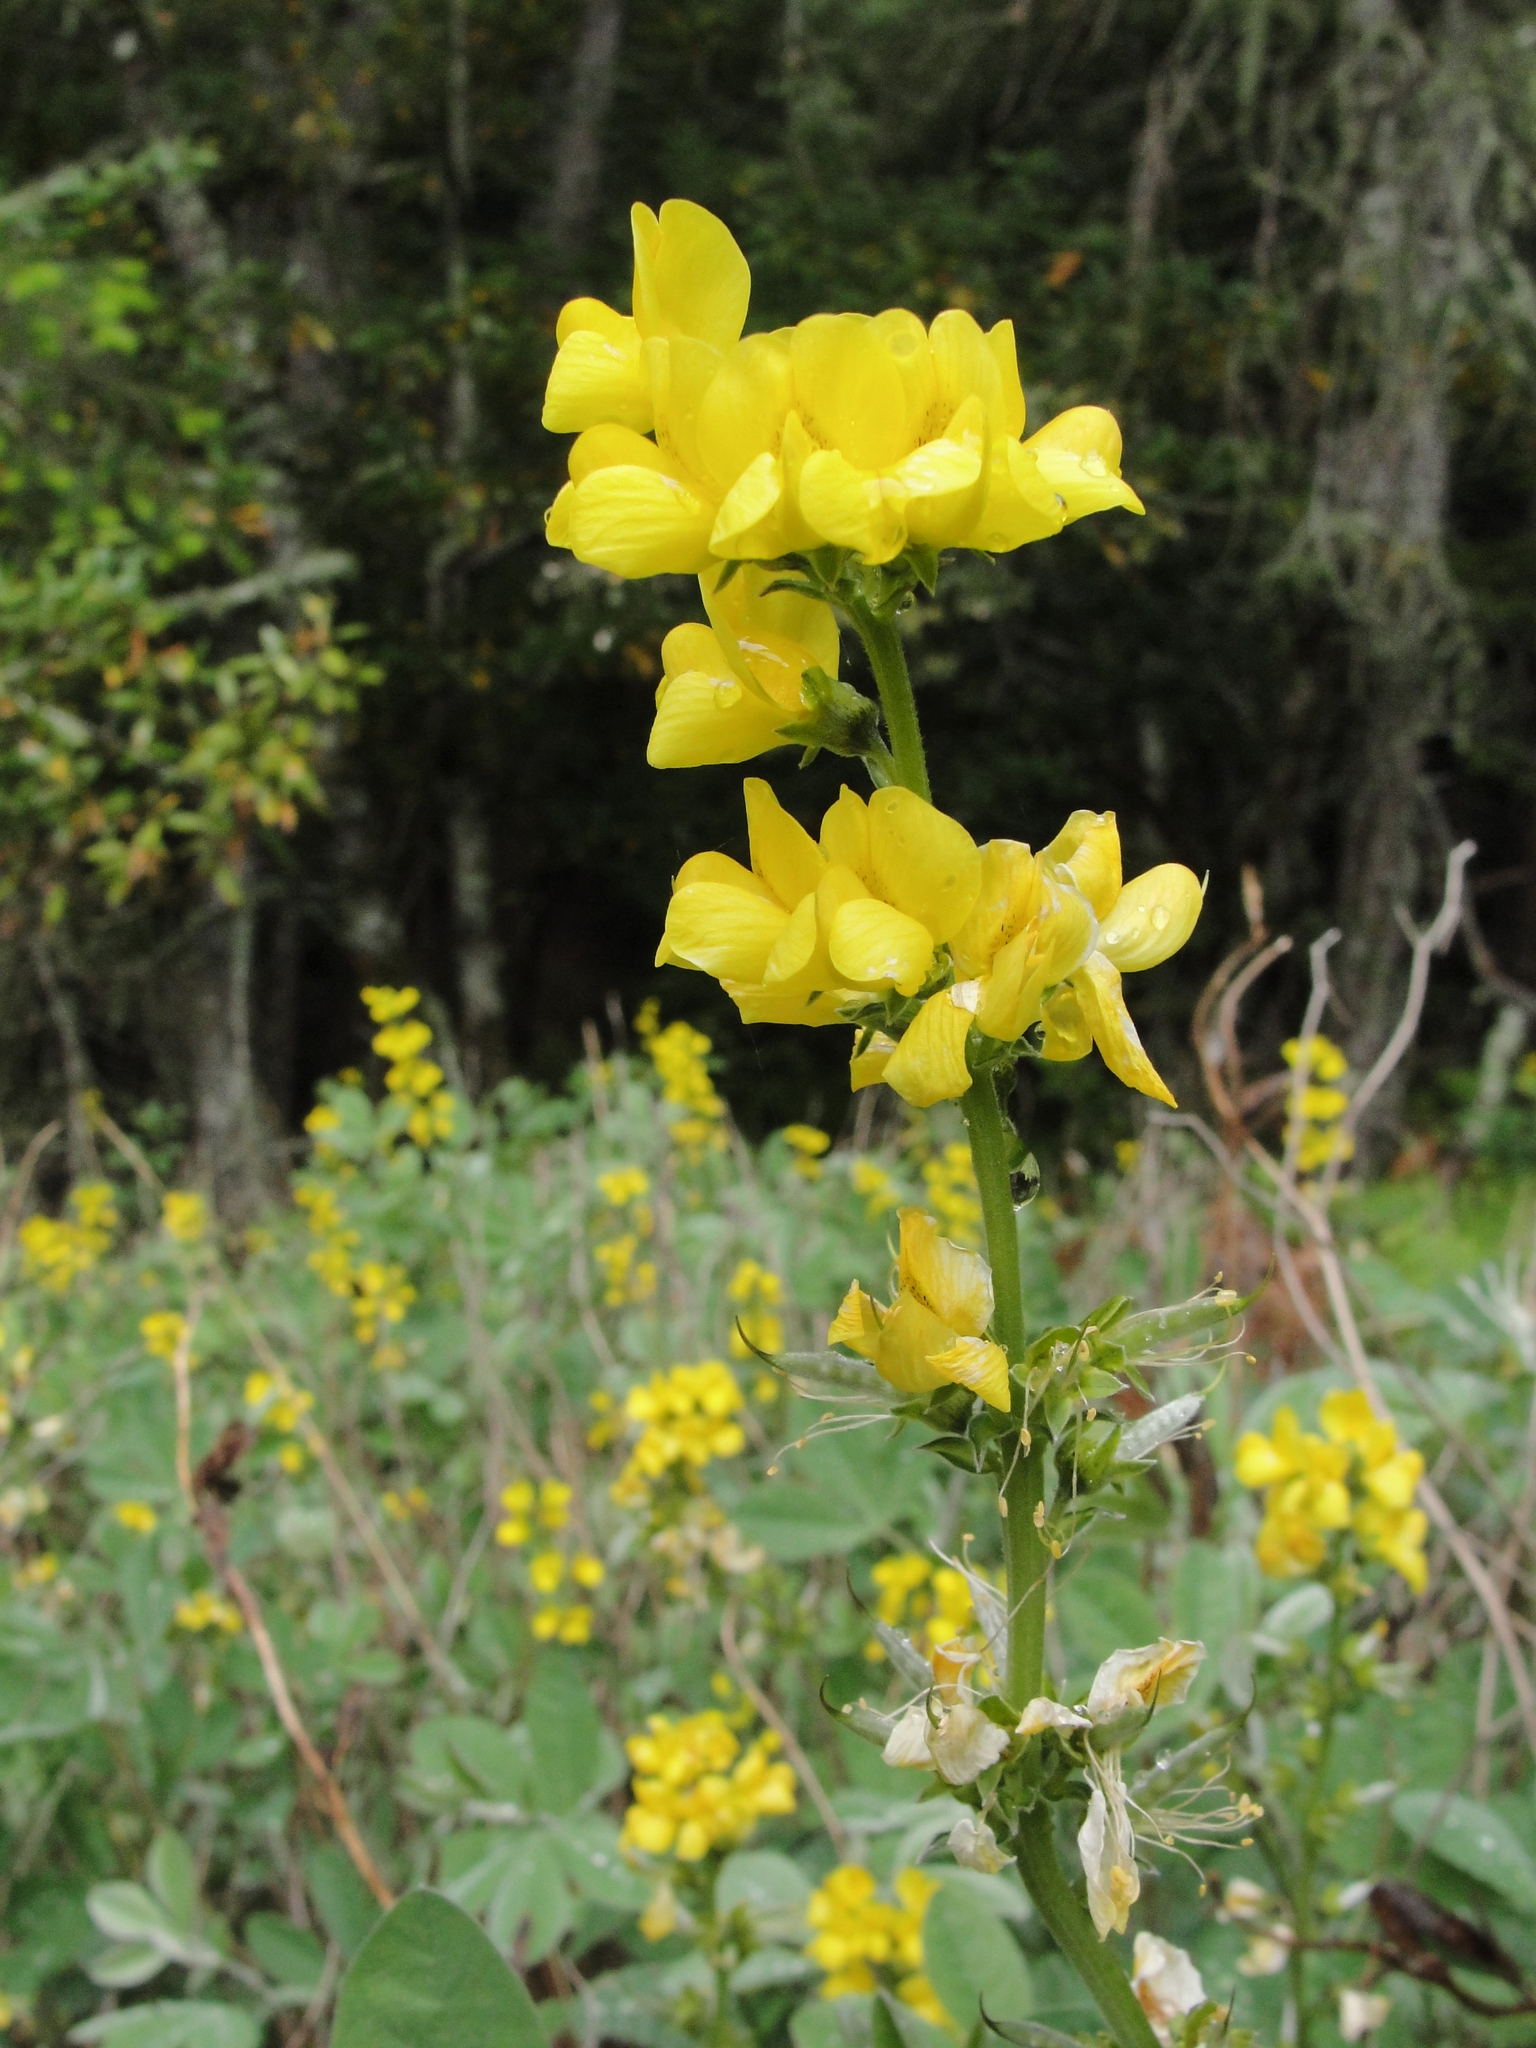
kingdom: Plantae
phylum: Tracheophyta
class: Magnoliopsida
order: Fabales
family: Fabaceae
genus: Thermopsis
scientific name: Thermopsis californica
